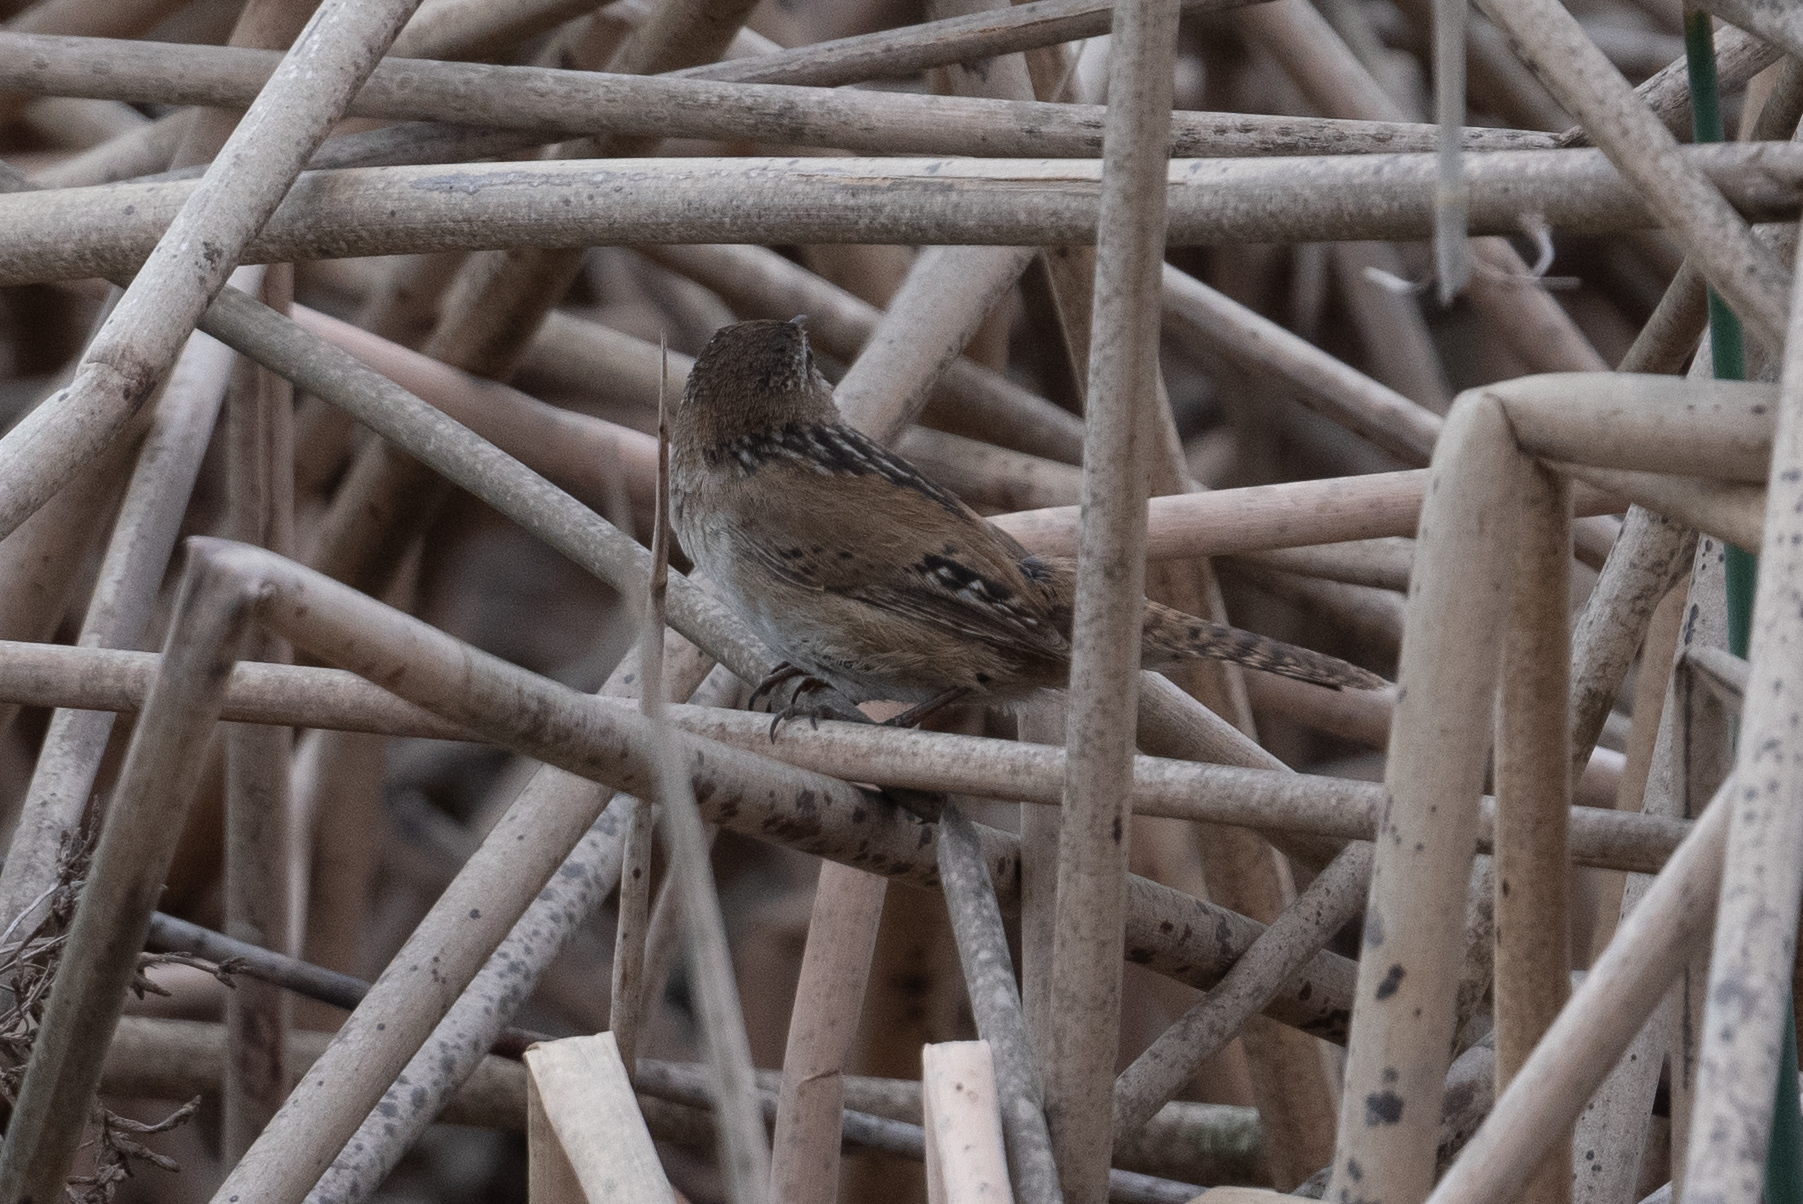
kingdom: Animalia
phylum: Chordata
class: Aves
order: Passeriformes
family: Troglodytidae
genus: Cistothorus
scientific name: Cistothorus palustris
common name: Marsh wren
